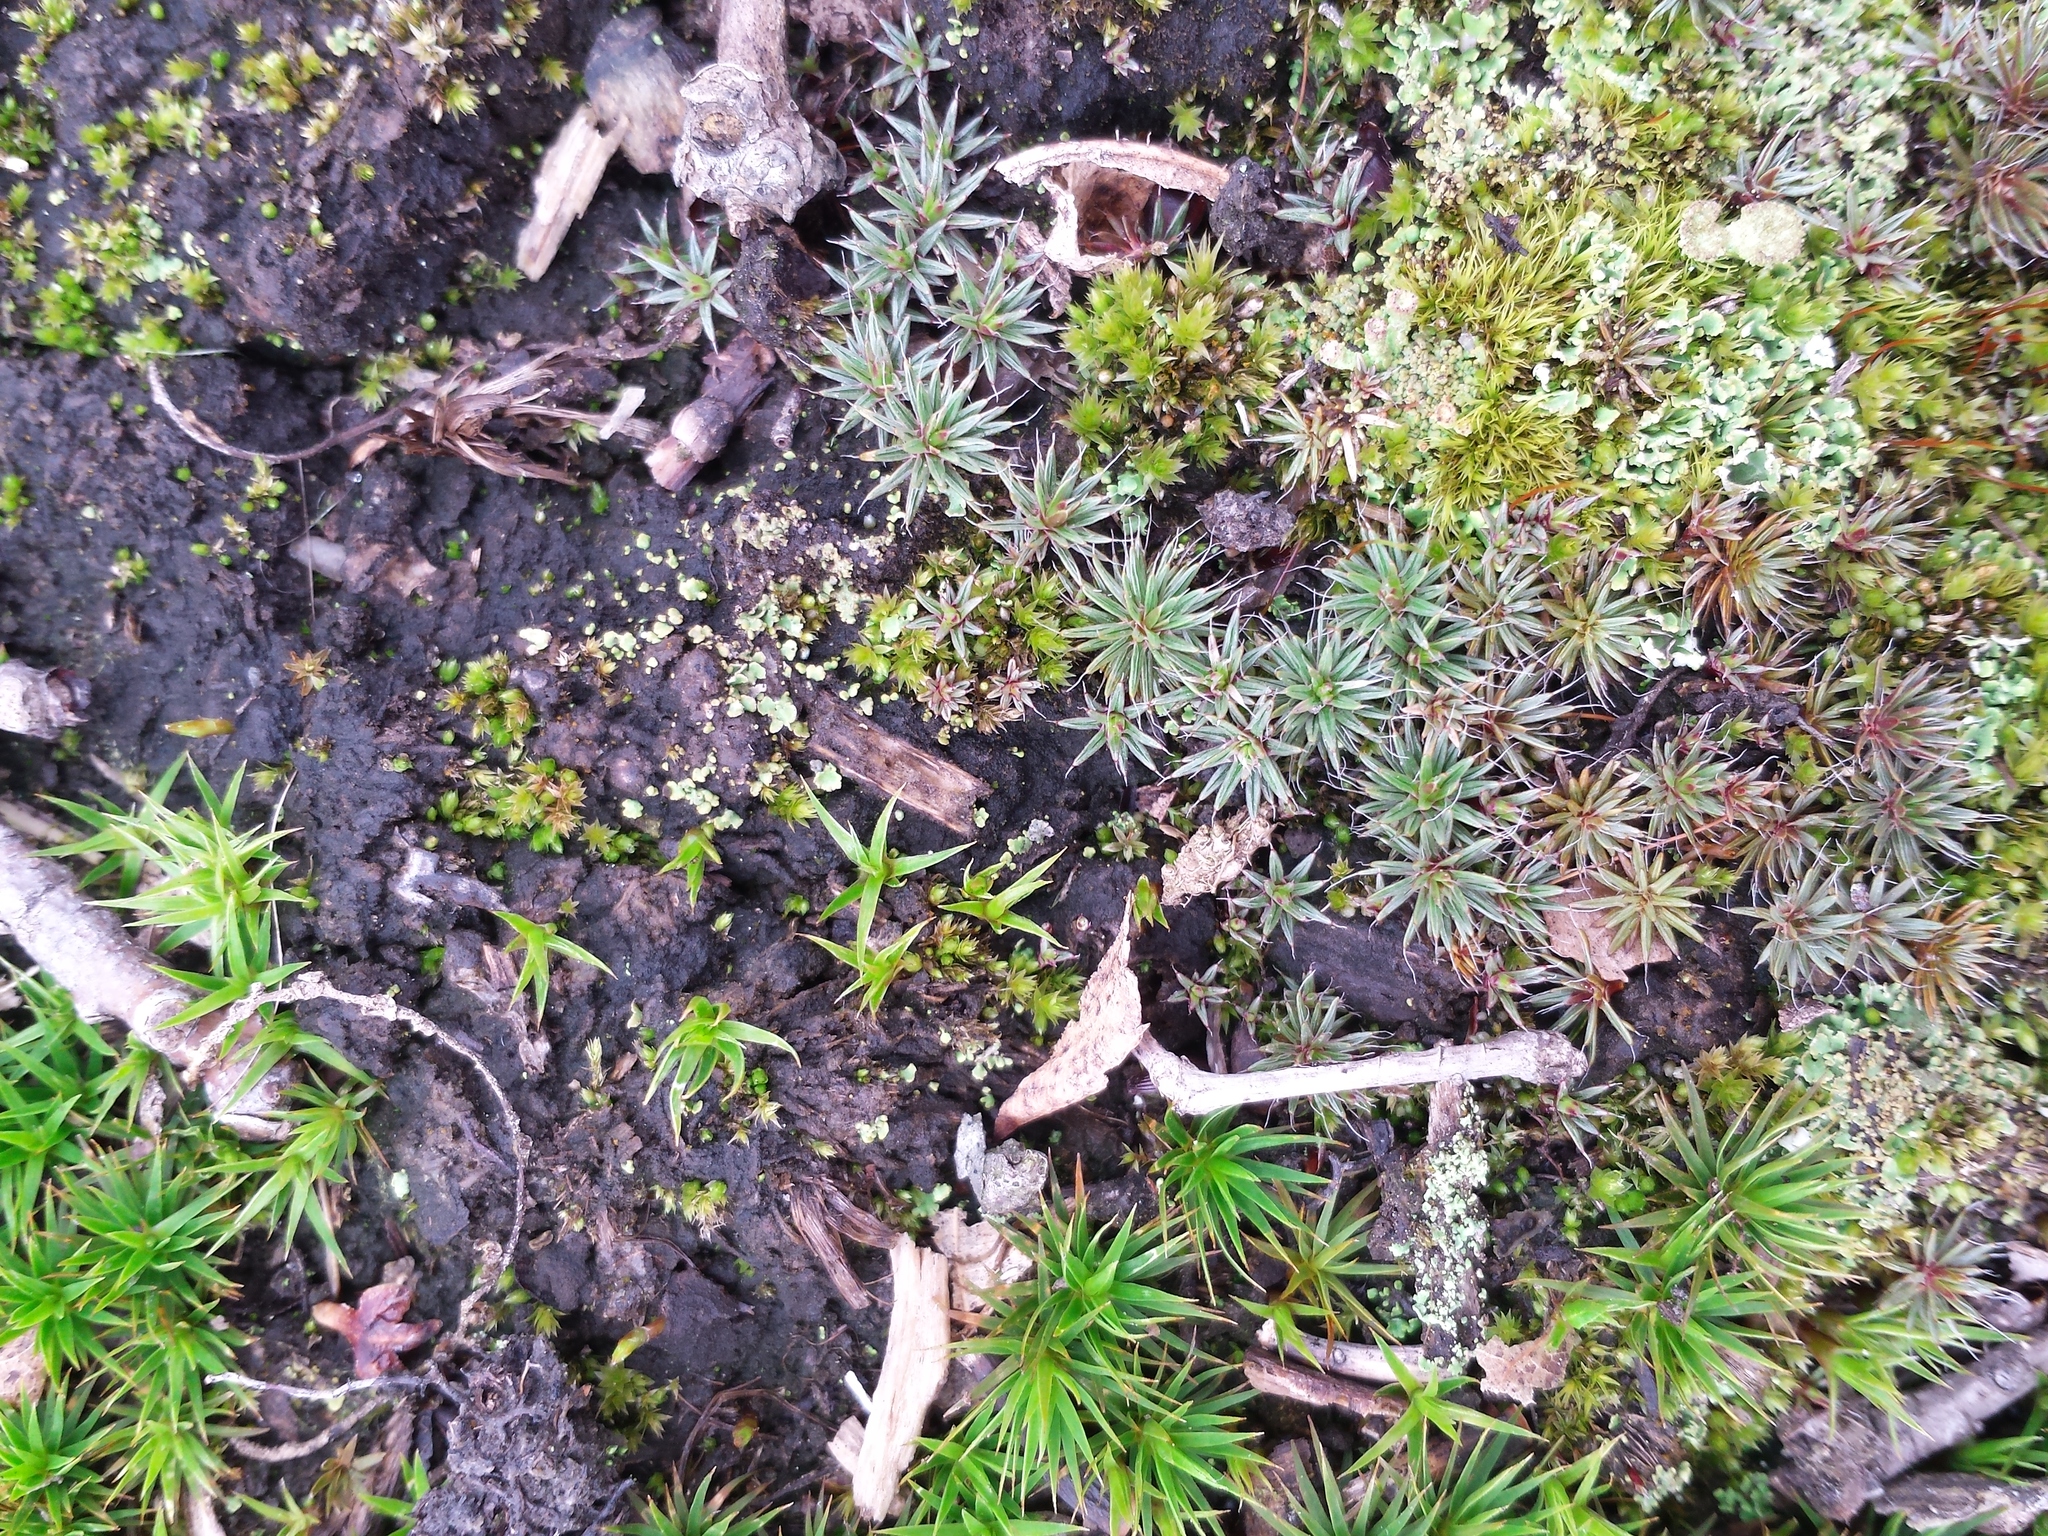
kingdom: Plantae
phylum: Bryophyta
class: Polytrichopsida
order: Polytrichales
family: Polytrichaceae
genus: Polytrichum
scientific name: Polytrichum piliferum
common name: Bristly haircap
